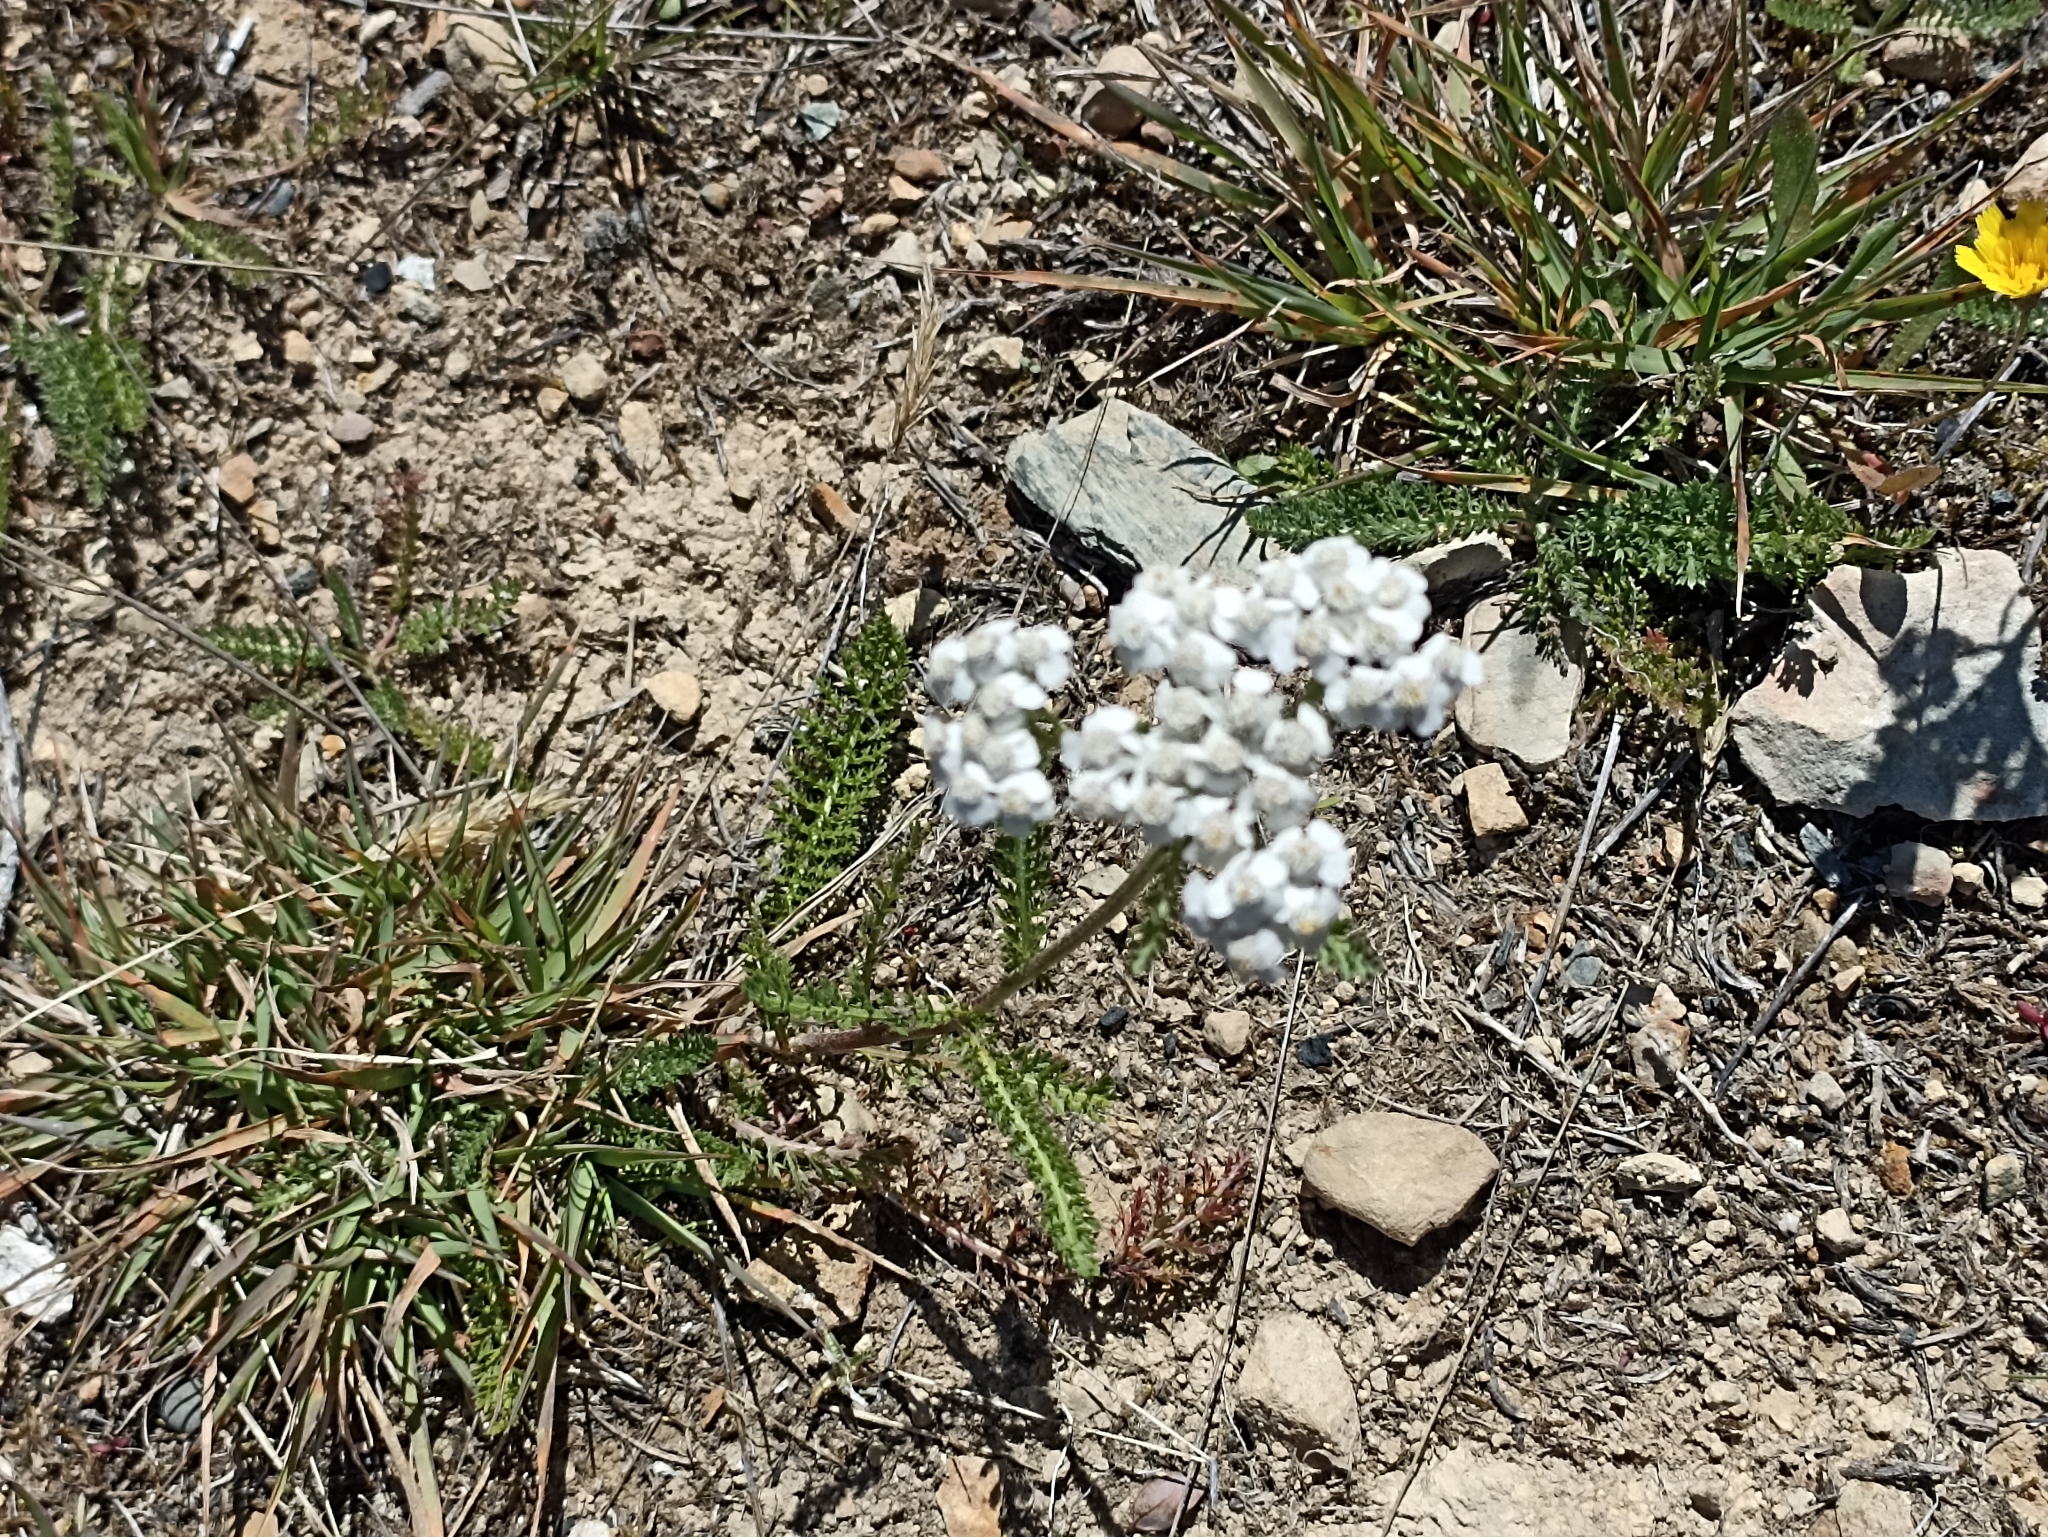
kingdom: Plantae
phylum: Tracheophyta
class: Magnoliopsida
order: Asterales
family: Asteraceae
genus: Achillea
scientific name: Achillea millefolium
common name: Yarrow
